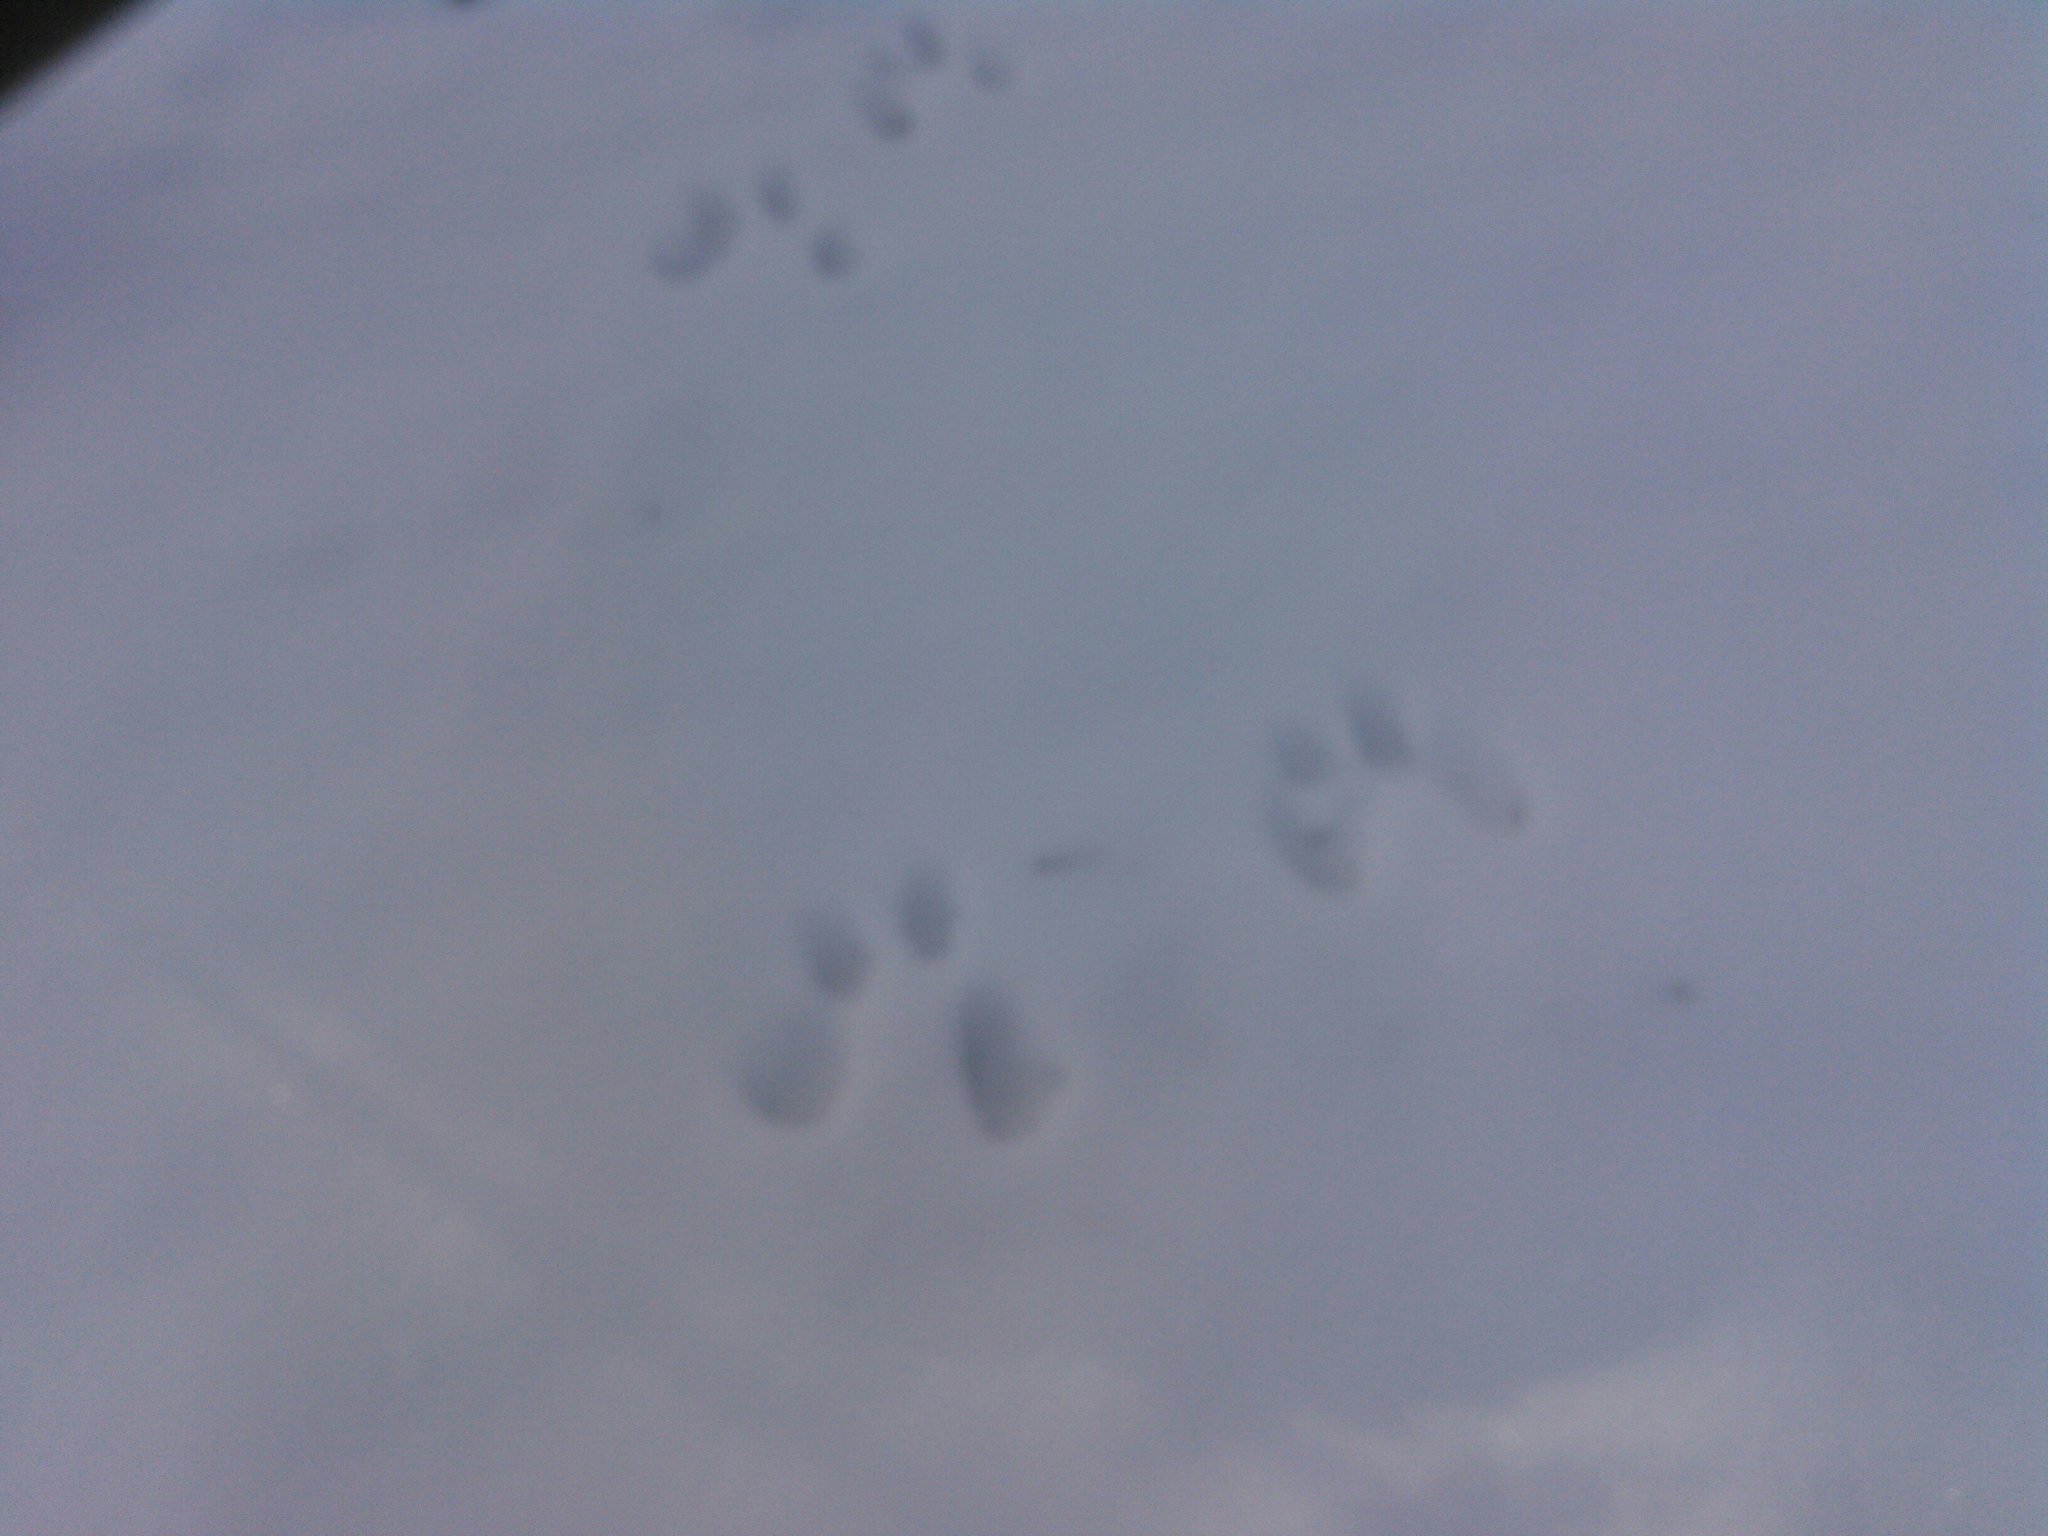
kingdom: Animalia
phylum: Chordata
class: Mammalia
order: Rodentia
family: Sciuridae
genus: Sciurus
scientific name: Sciurus carolinensis
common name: Eastern gray squirrel
